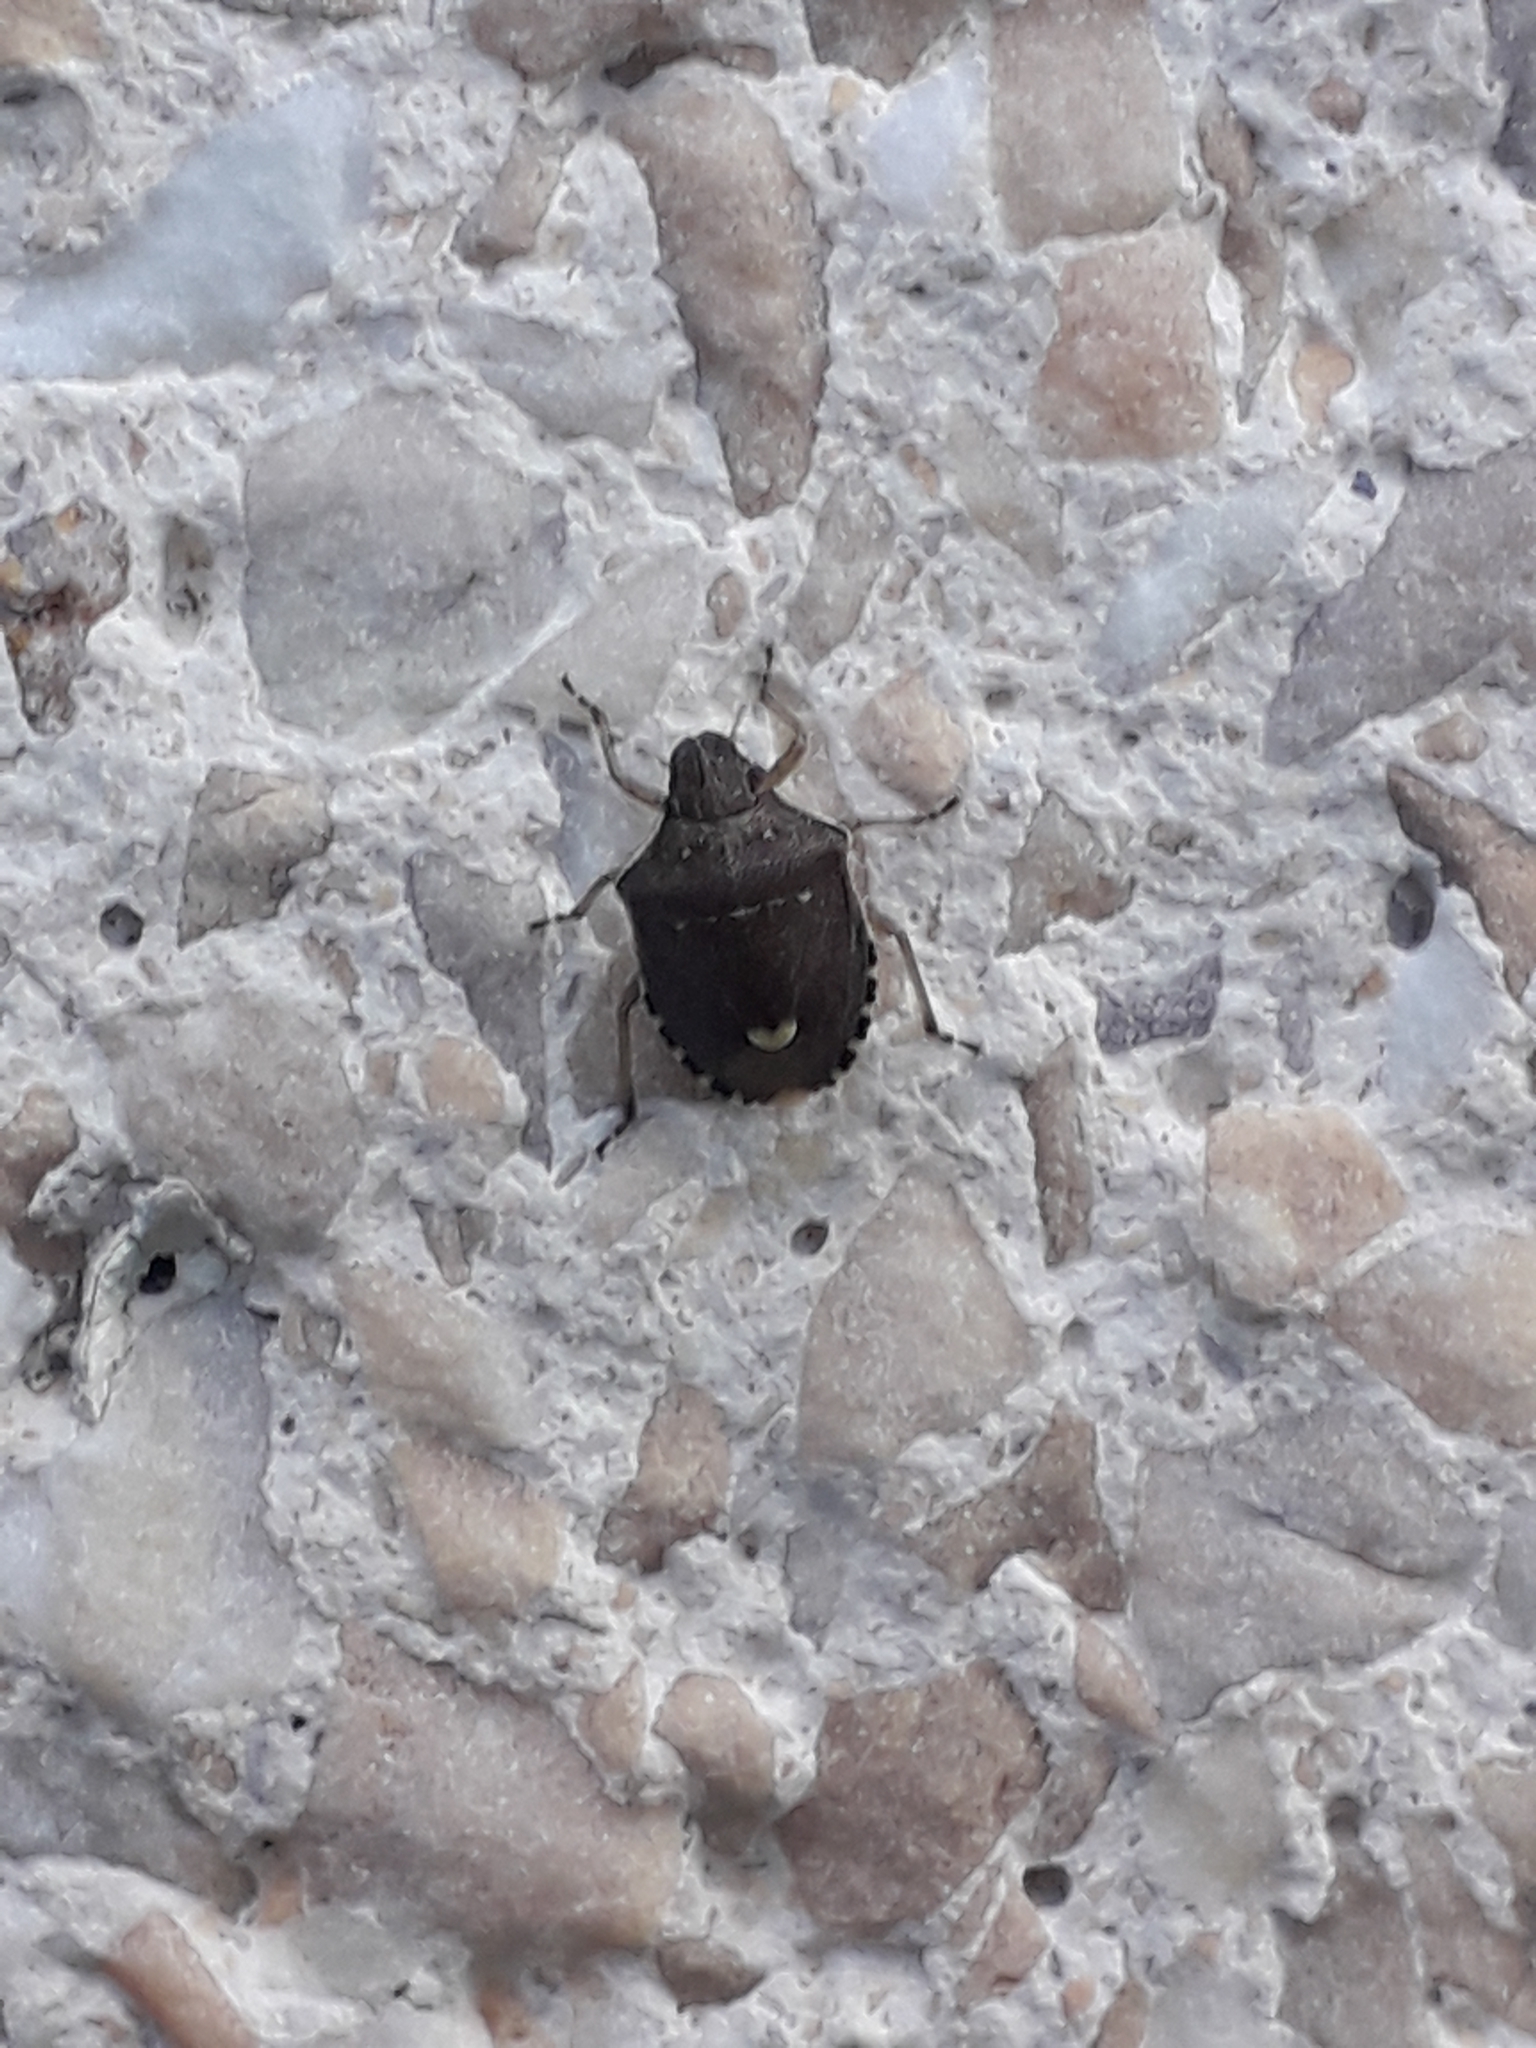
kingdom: Animalia
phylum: Arthropoda
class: Insecta
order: Hemiptera
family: Pentatomidae
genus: Holcostethus
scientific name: Holcostethus sphacelatus
